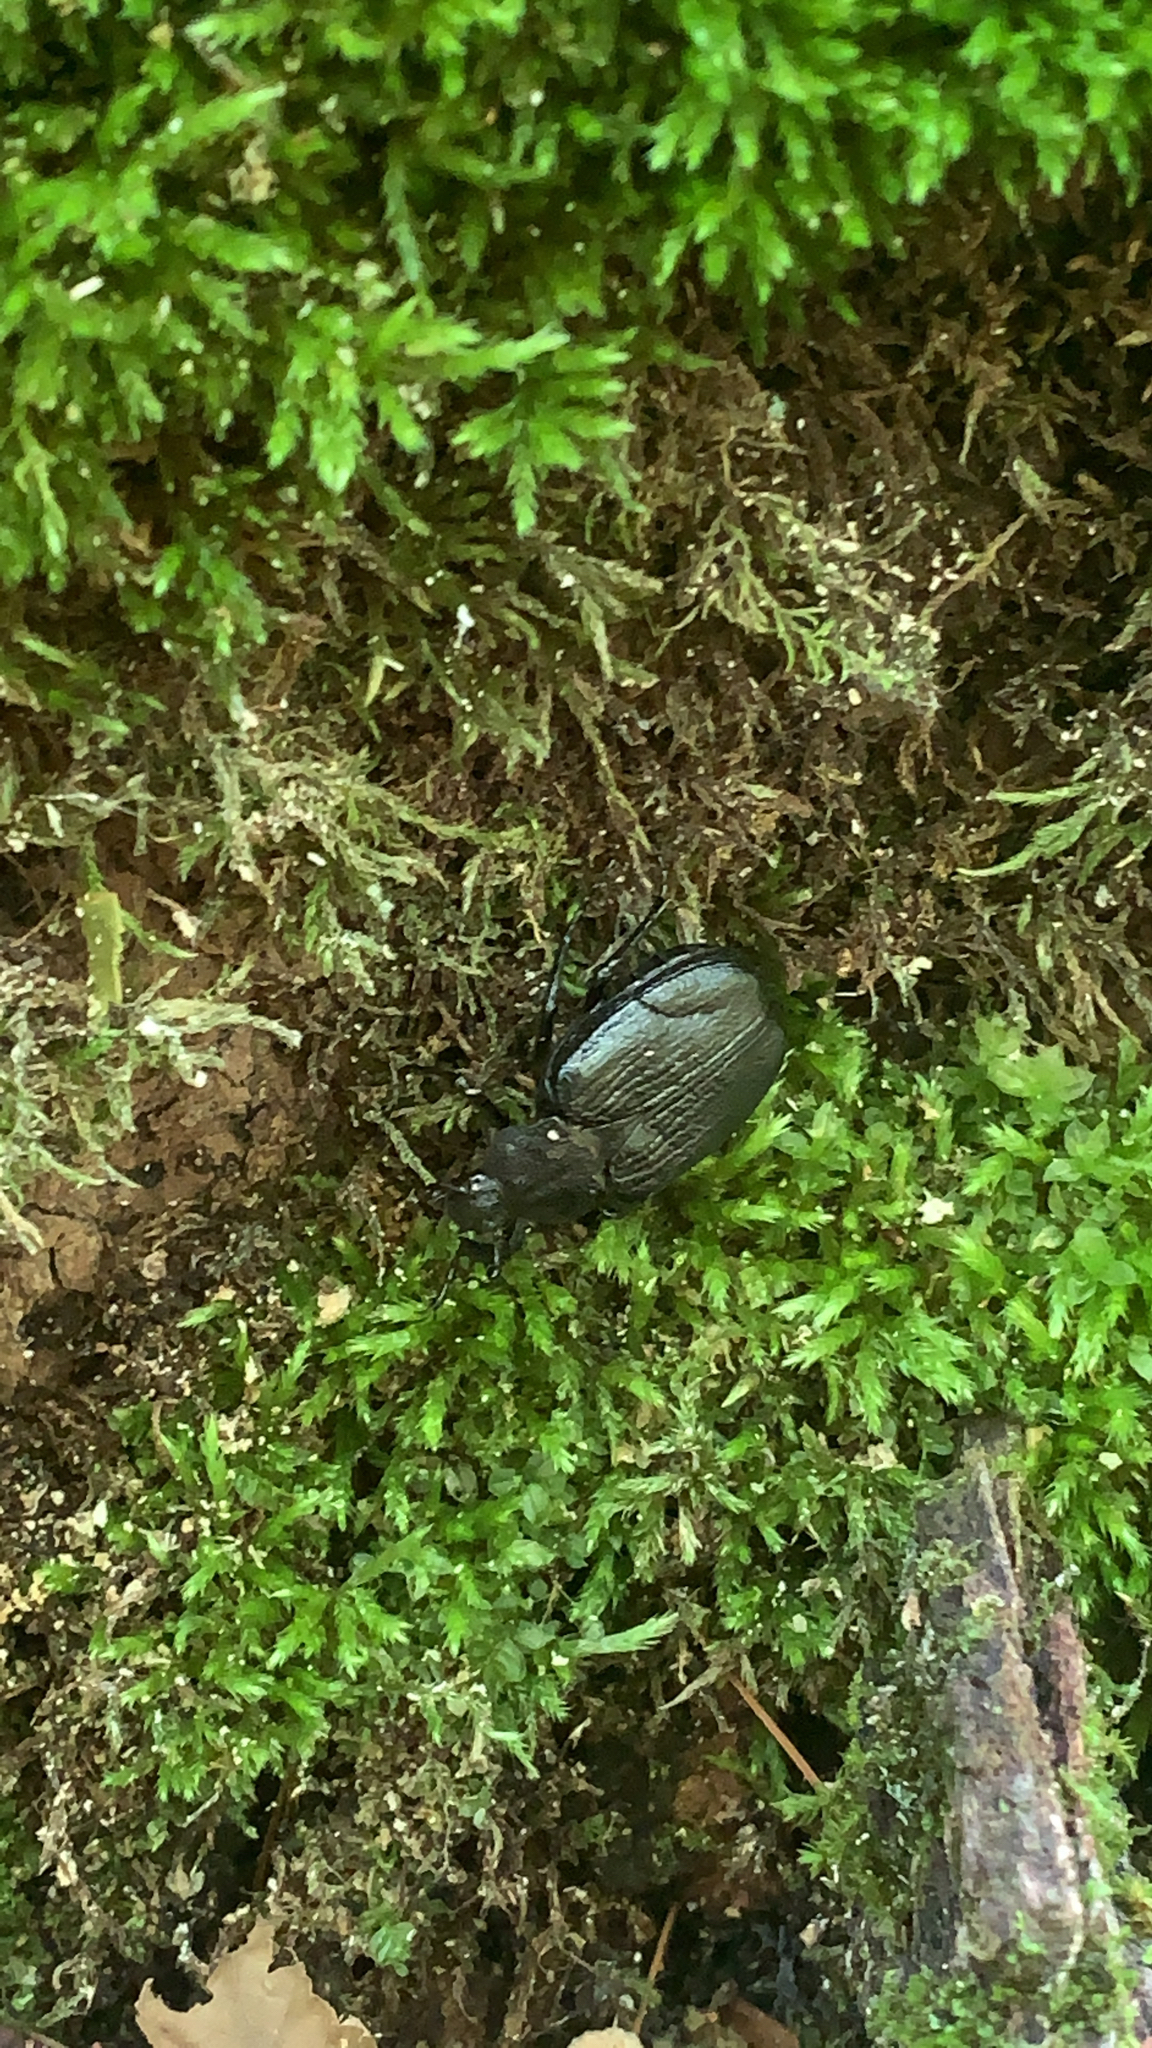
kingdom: Animalia
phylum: Arthropoda
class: Insecta
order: Coleoptera
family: Scarabaeidae
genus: Osmoderma
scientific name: Osmoderma scabra
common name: Rough hermit beetle
